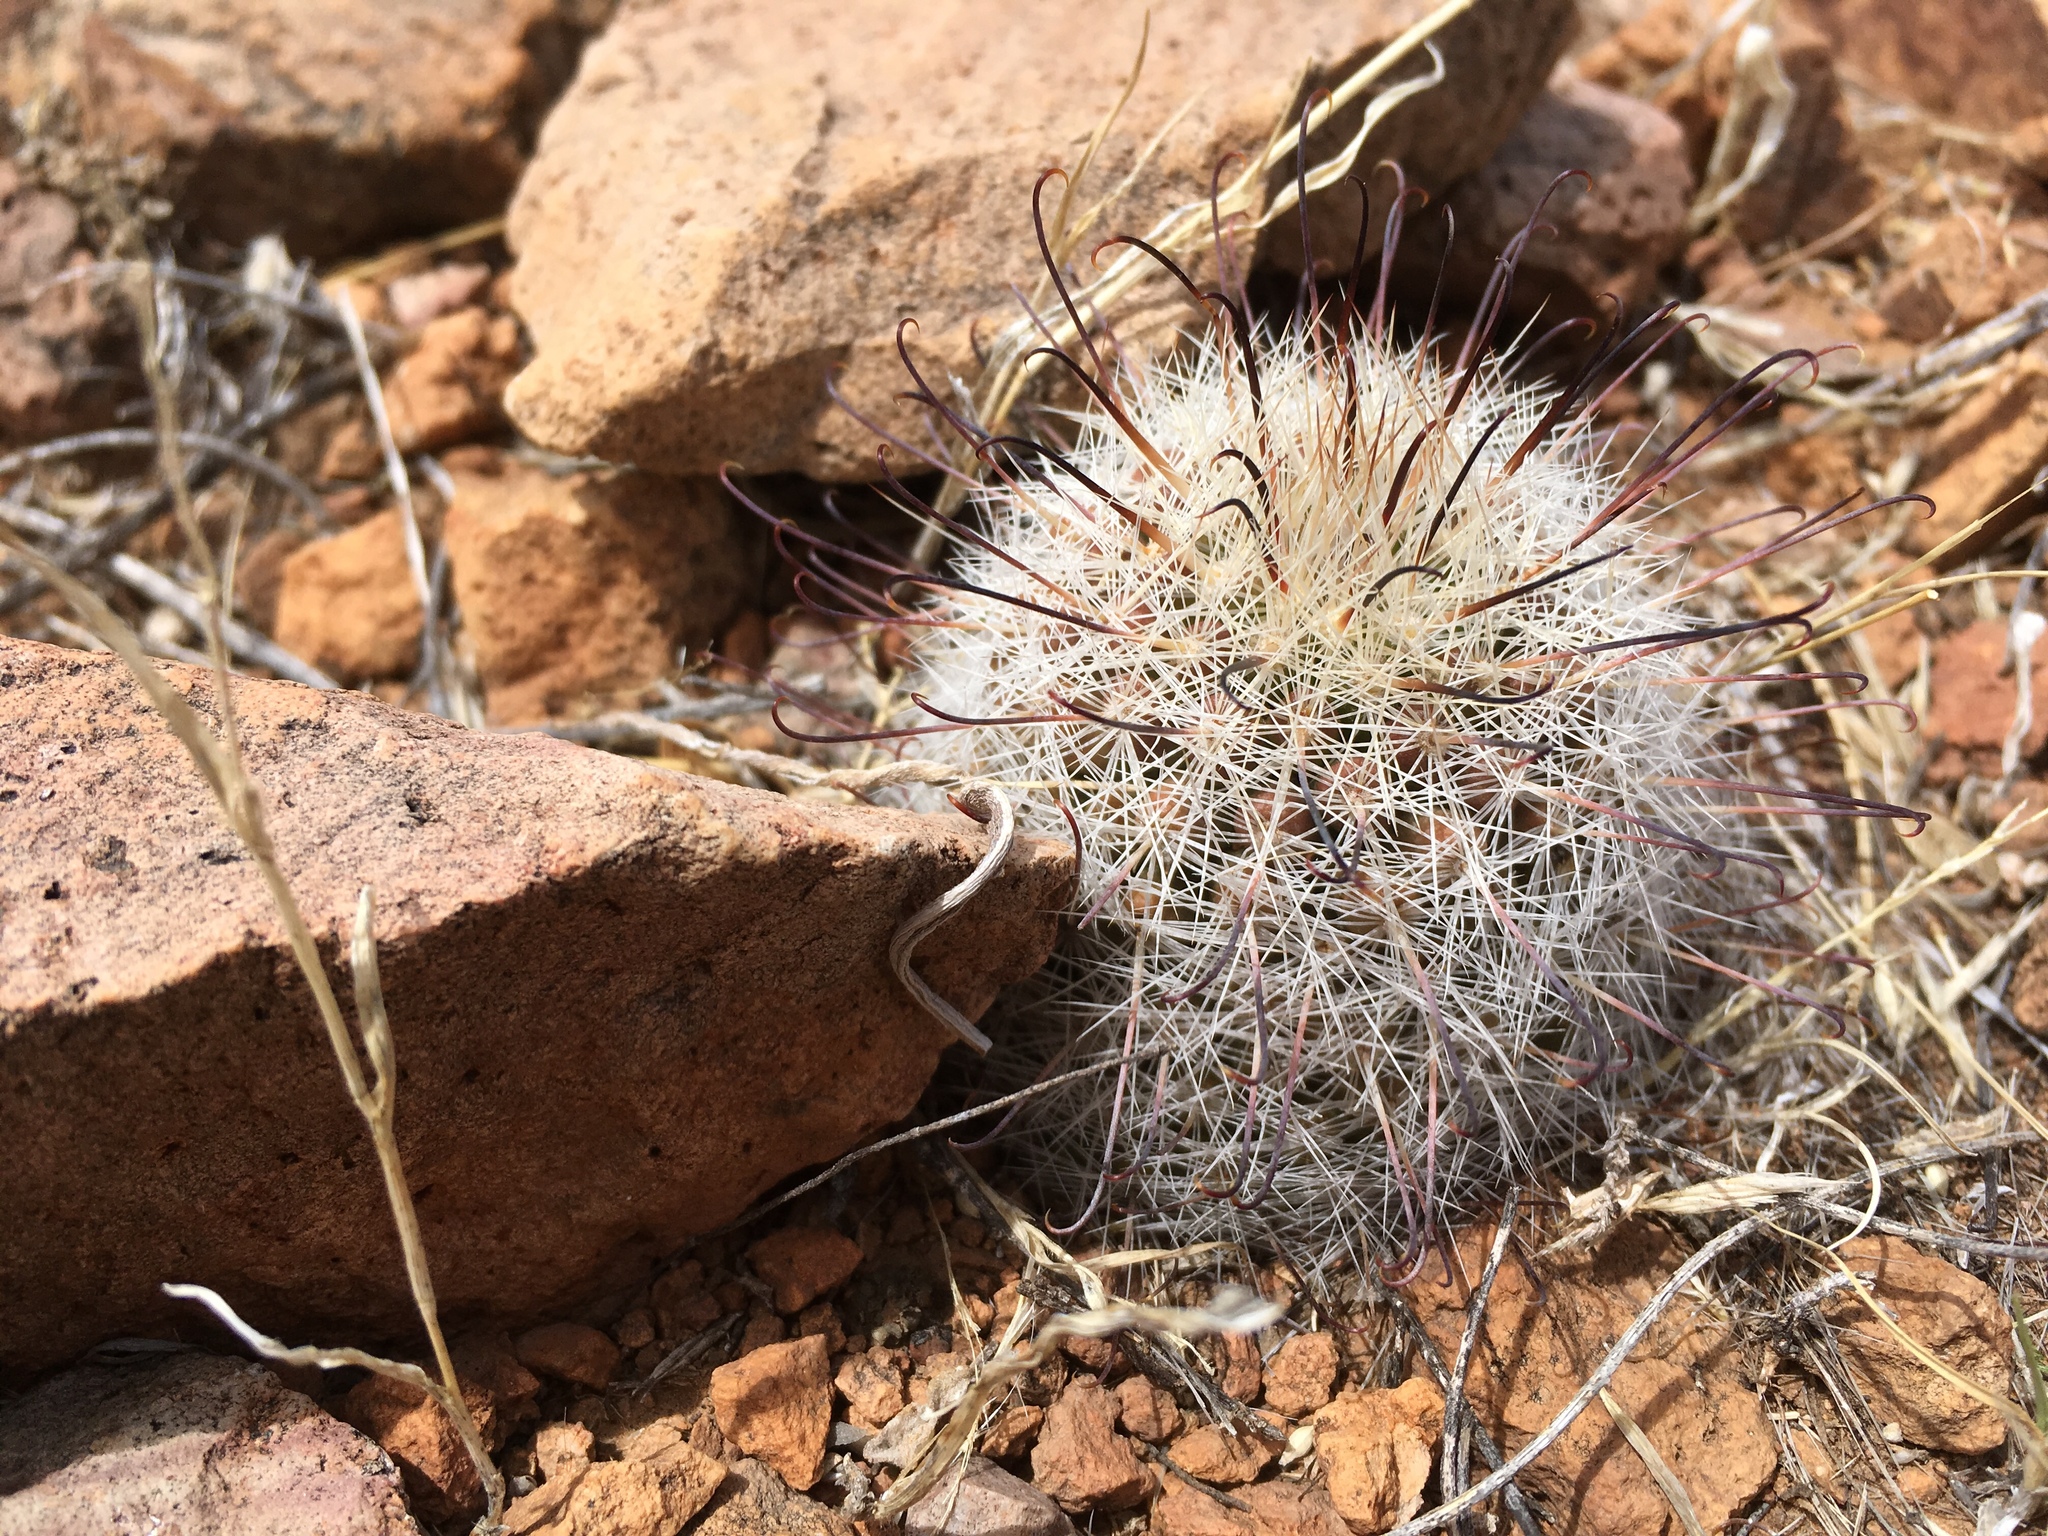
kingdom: Plantae
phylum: Tracheophyta
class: Magnoliopsida
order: Caryophyllales
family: Cactaceae
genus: Cochemiea
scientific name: Cochemiea grahamii
